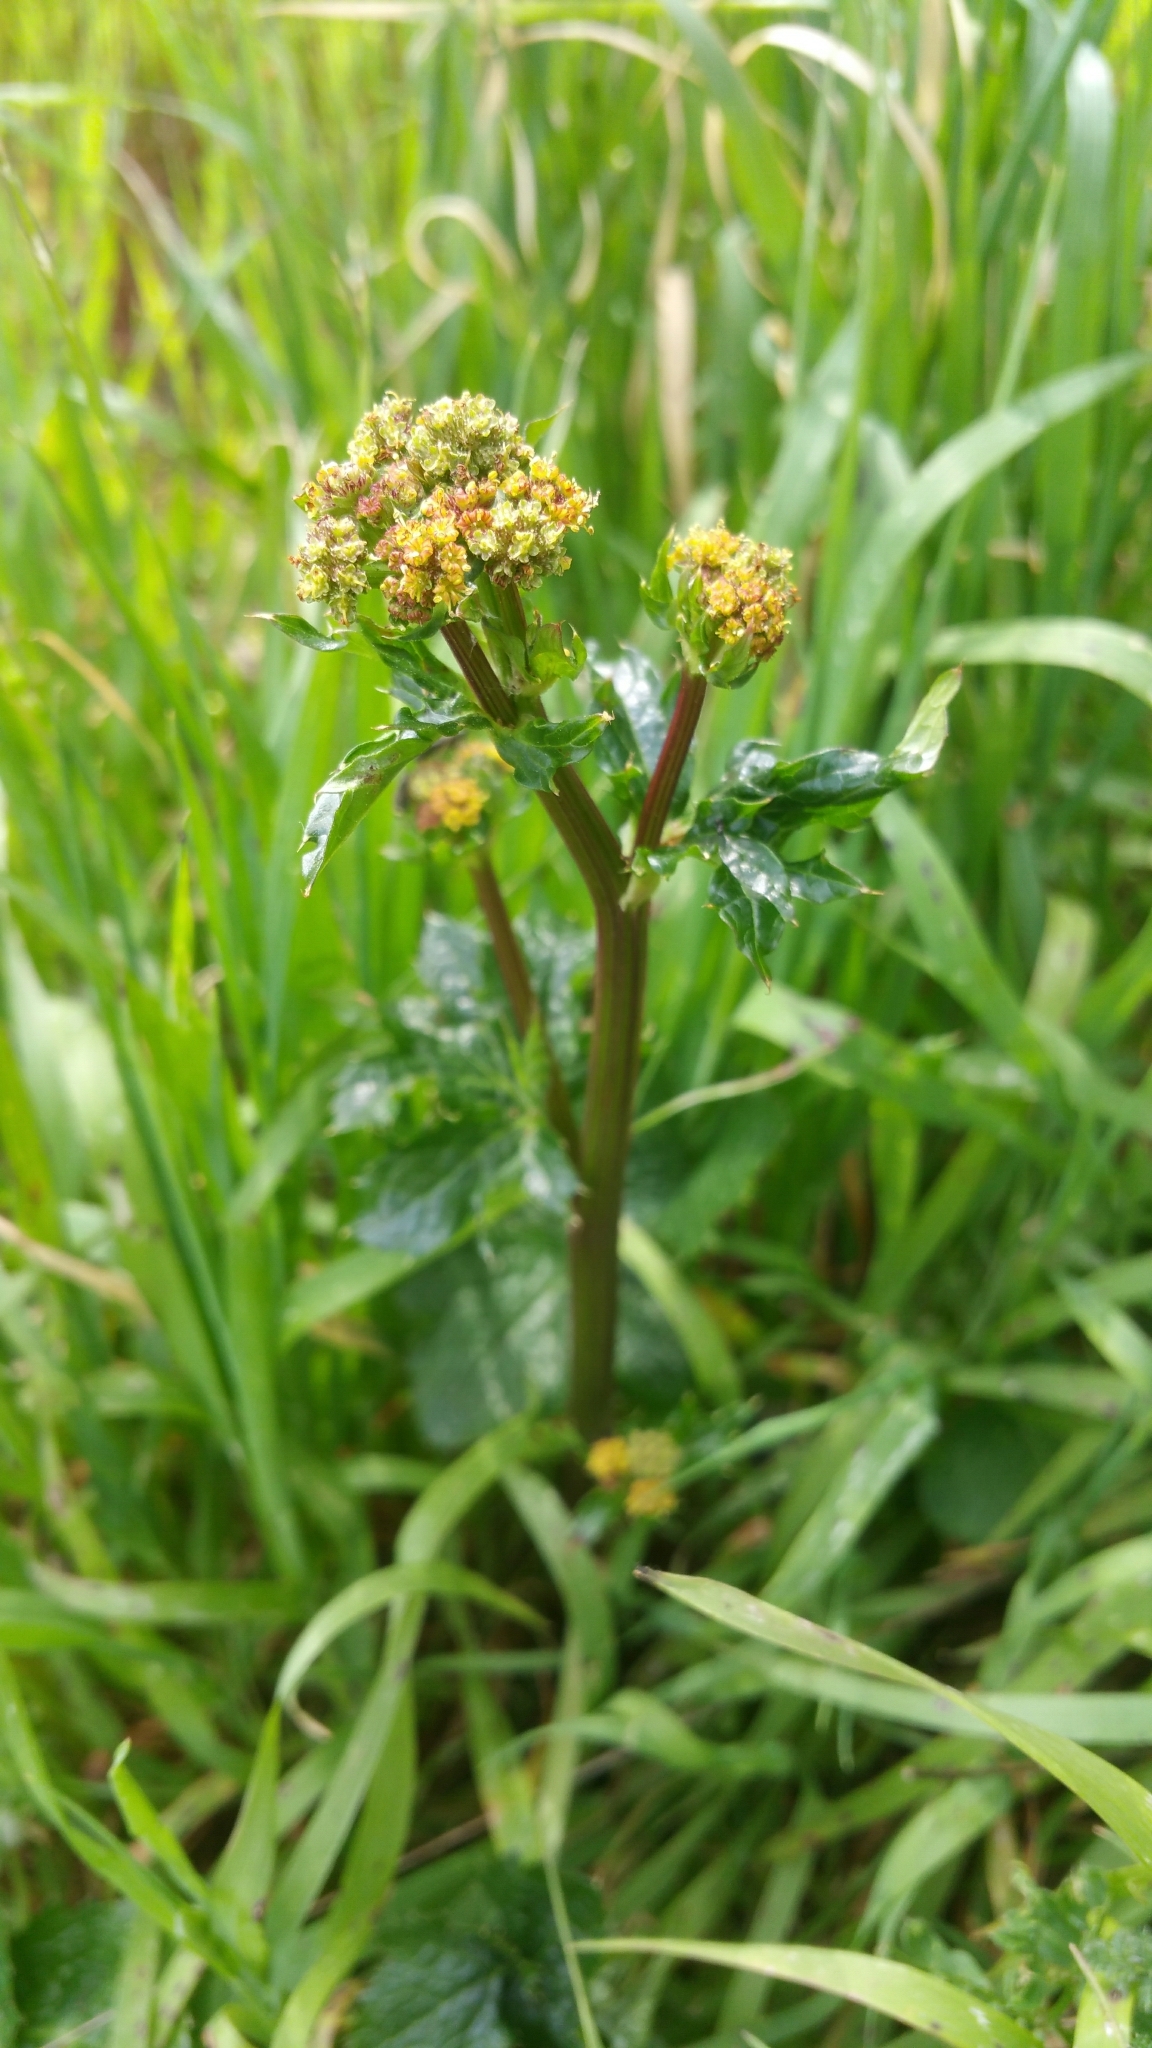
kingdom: Plantae
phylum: Tracheophyta
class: Magnoliopsida
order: Apiales
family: Apiaceae
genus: Sanicula
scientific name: Sanicula crassicaulis
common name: Western snakeroot
